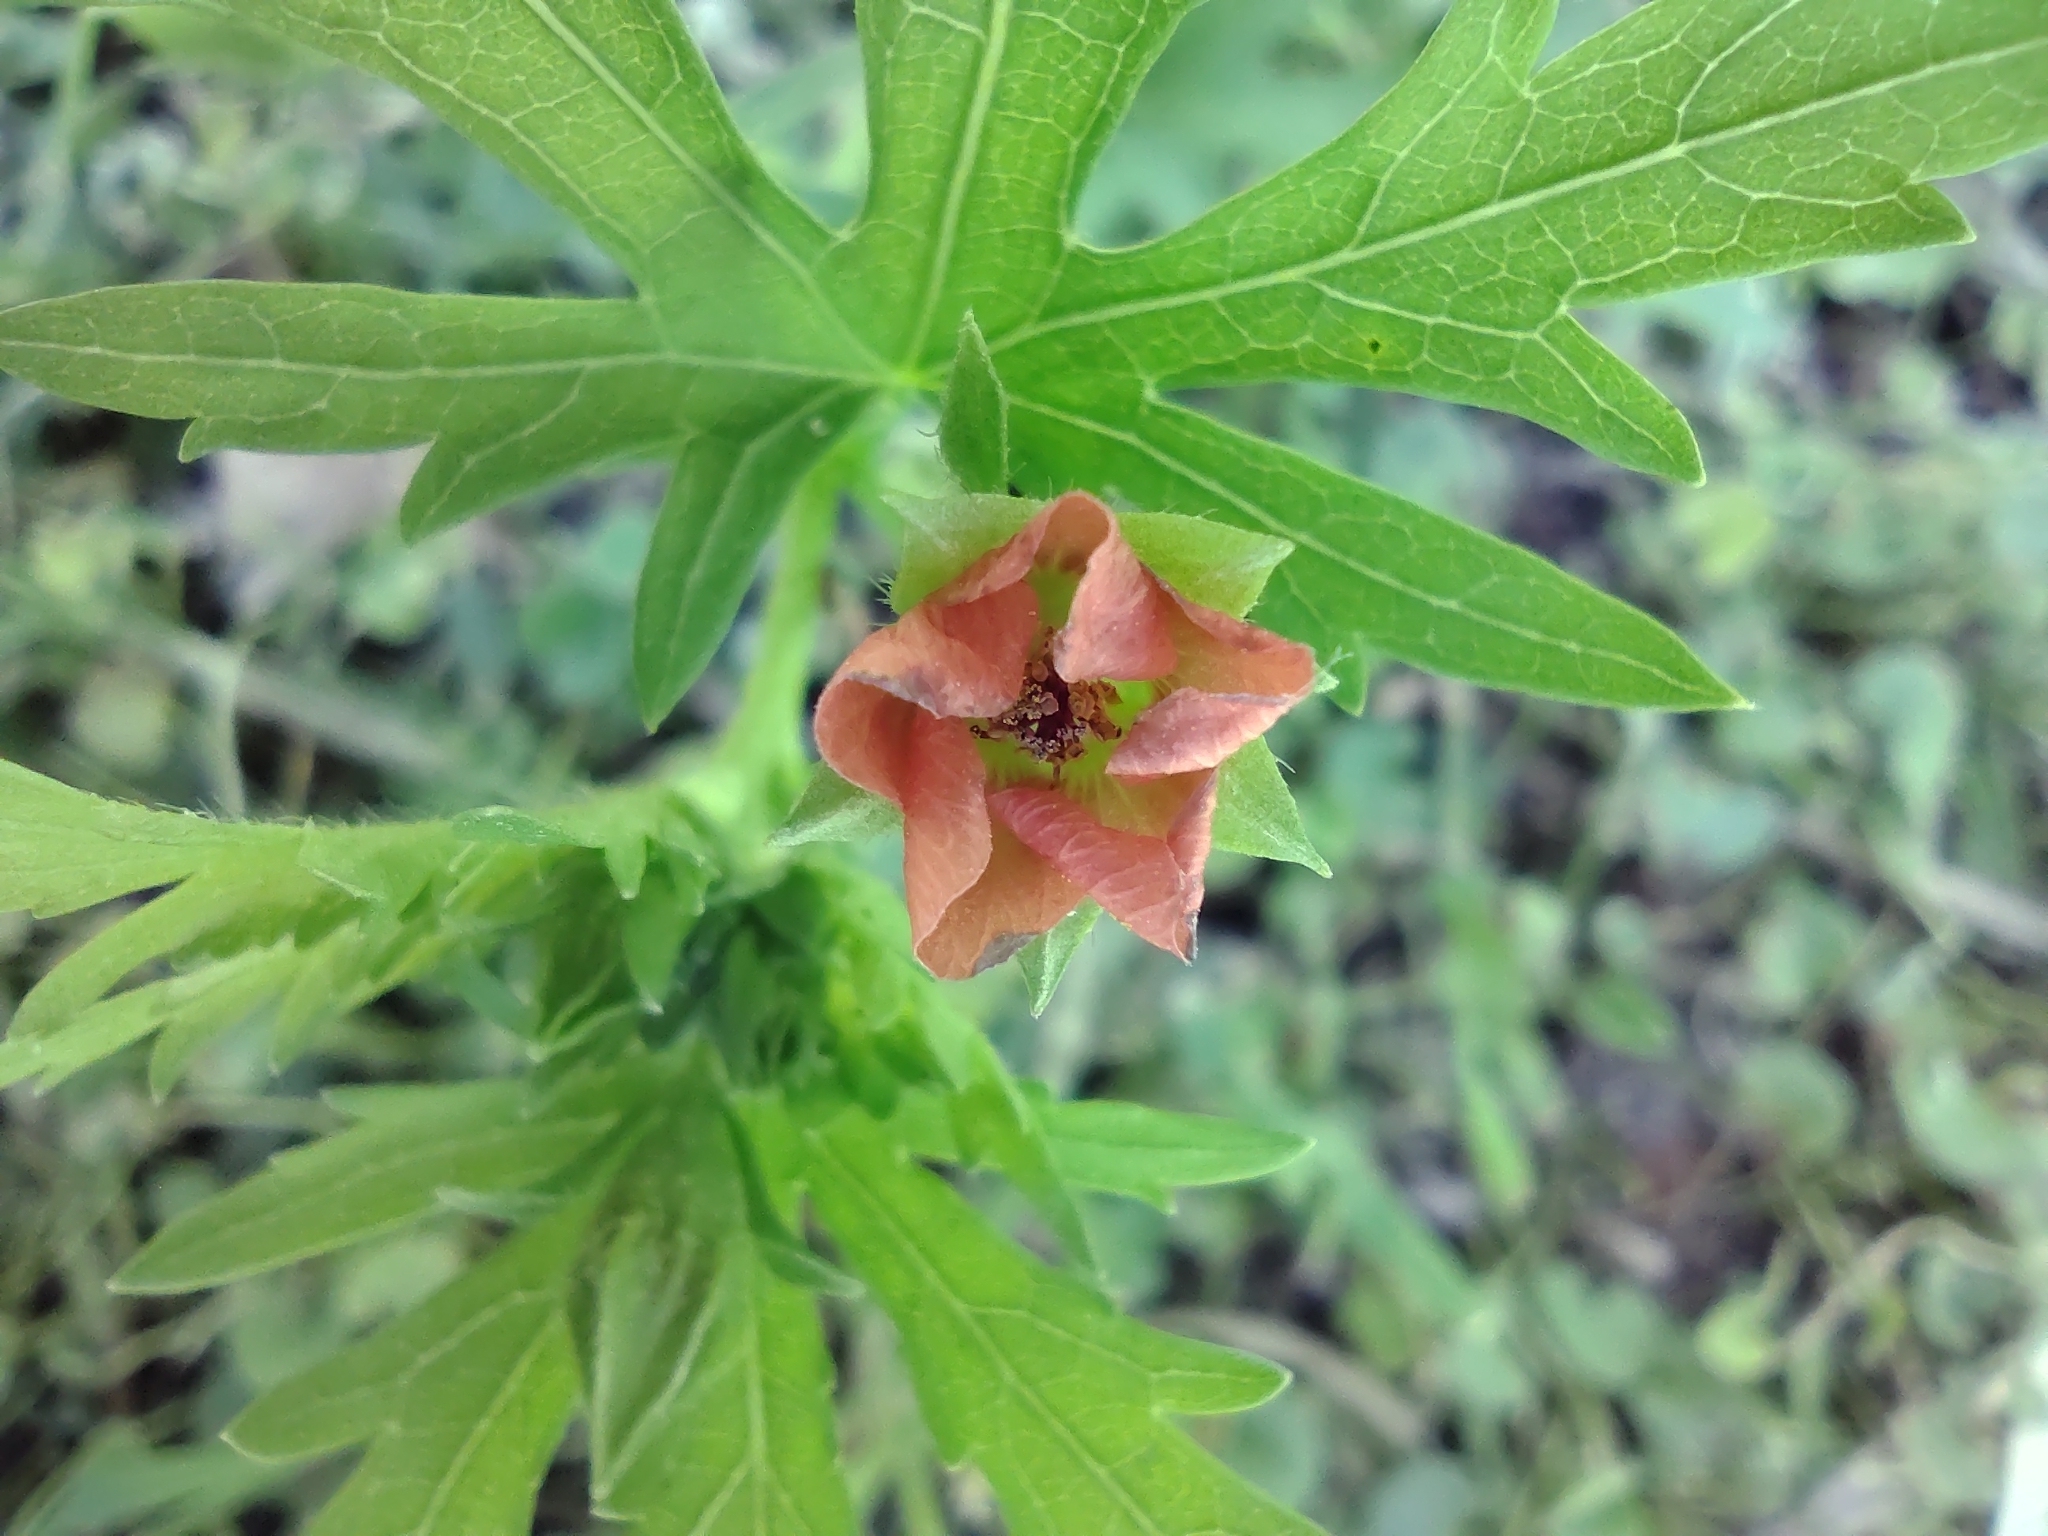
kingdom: Plantae
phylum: Tracheophyta
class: Magnoliopsida
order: Malvales
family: Malvaceae
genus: Modiola
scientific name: Modiola caroliniana
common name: Carolina bristlemallow
